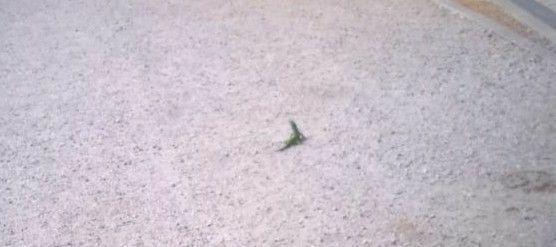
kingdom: Animalia
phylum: Chordata
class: Squamata
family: Lacertidae
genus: Timon
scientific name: Timon lepidus
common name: Ocellated lizard
